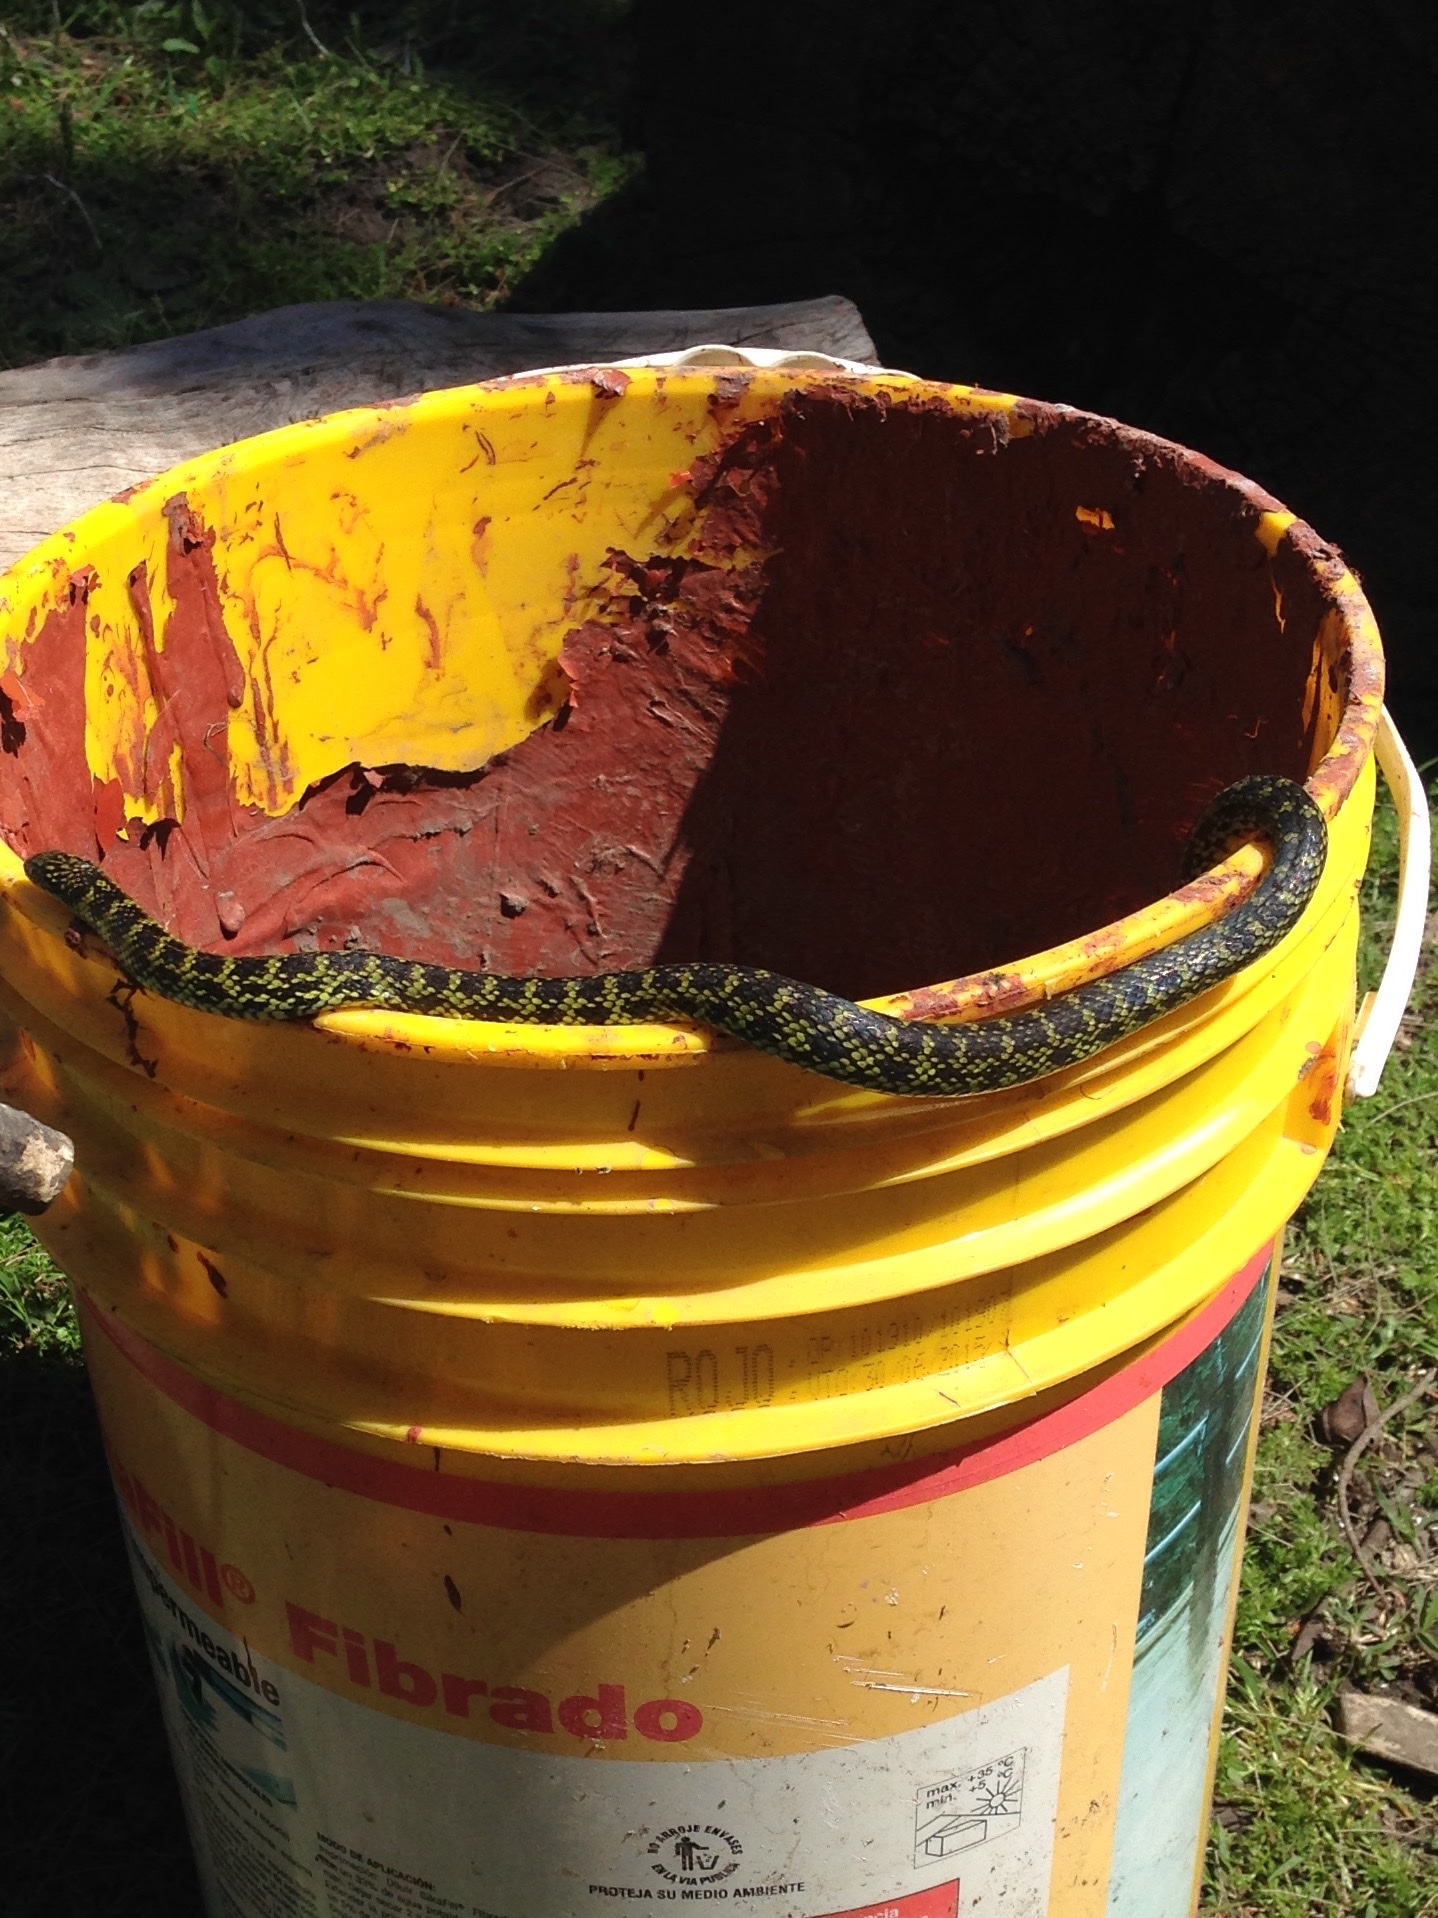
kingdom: Animalia
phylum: Chordata
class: Squamata
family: Colubridae
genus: Erythrolamprus
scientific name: Erythrolamprus poecilogyrus
